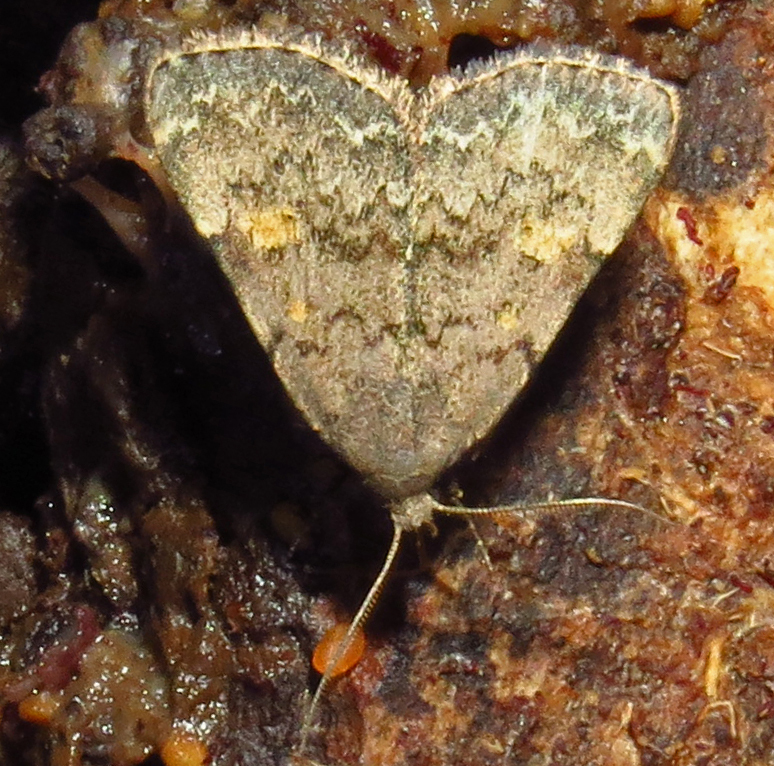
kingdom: Animalia
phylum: Arthropoda
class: Insecta
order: Lepidoptera
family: Erebidae
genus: Idia
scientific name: Idia aemula
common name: Common idia moth
